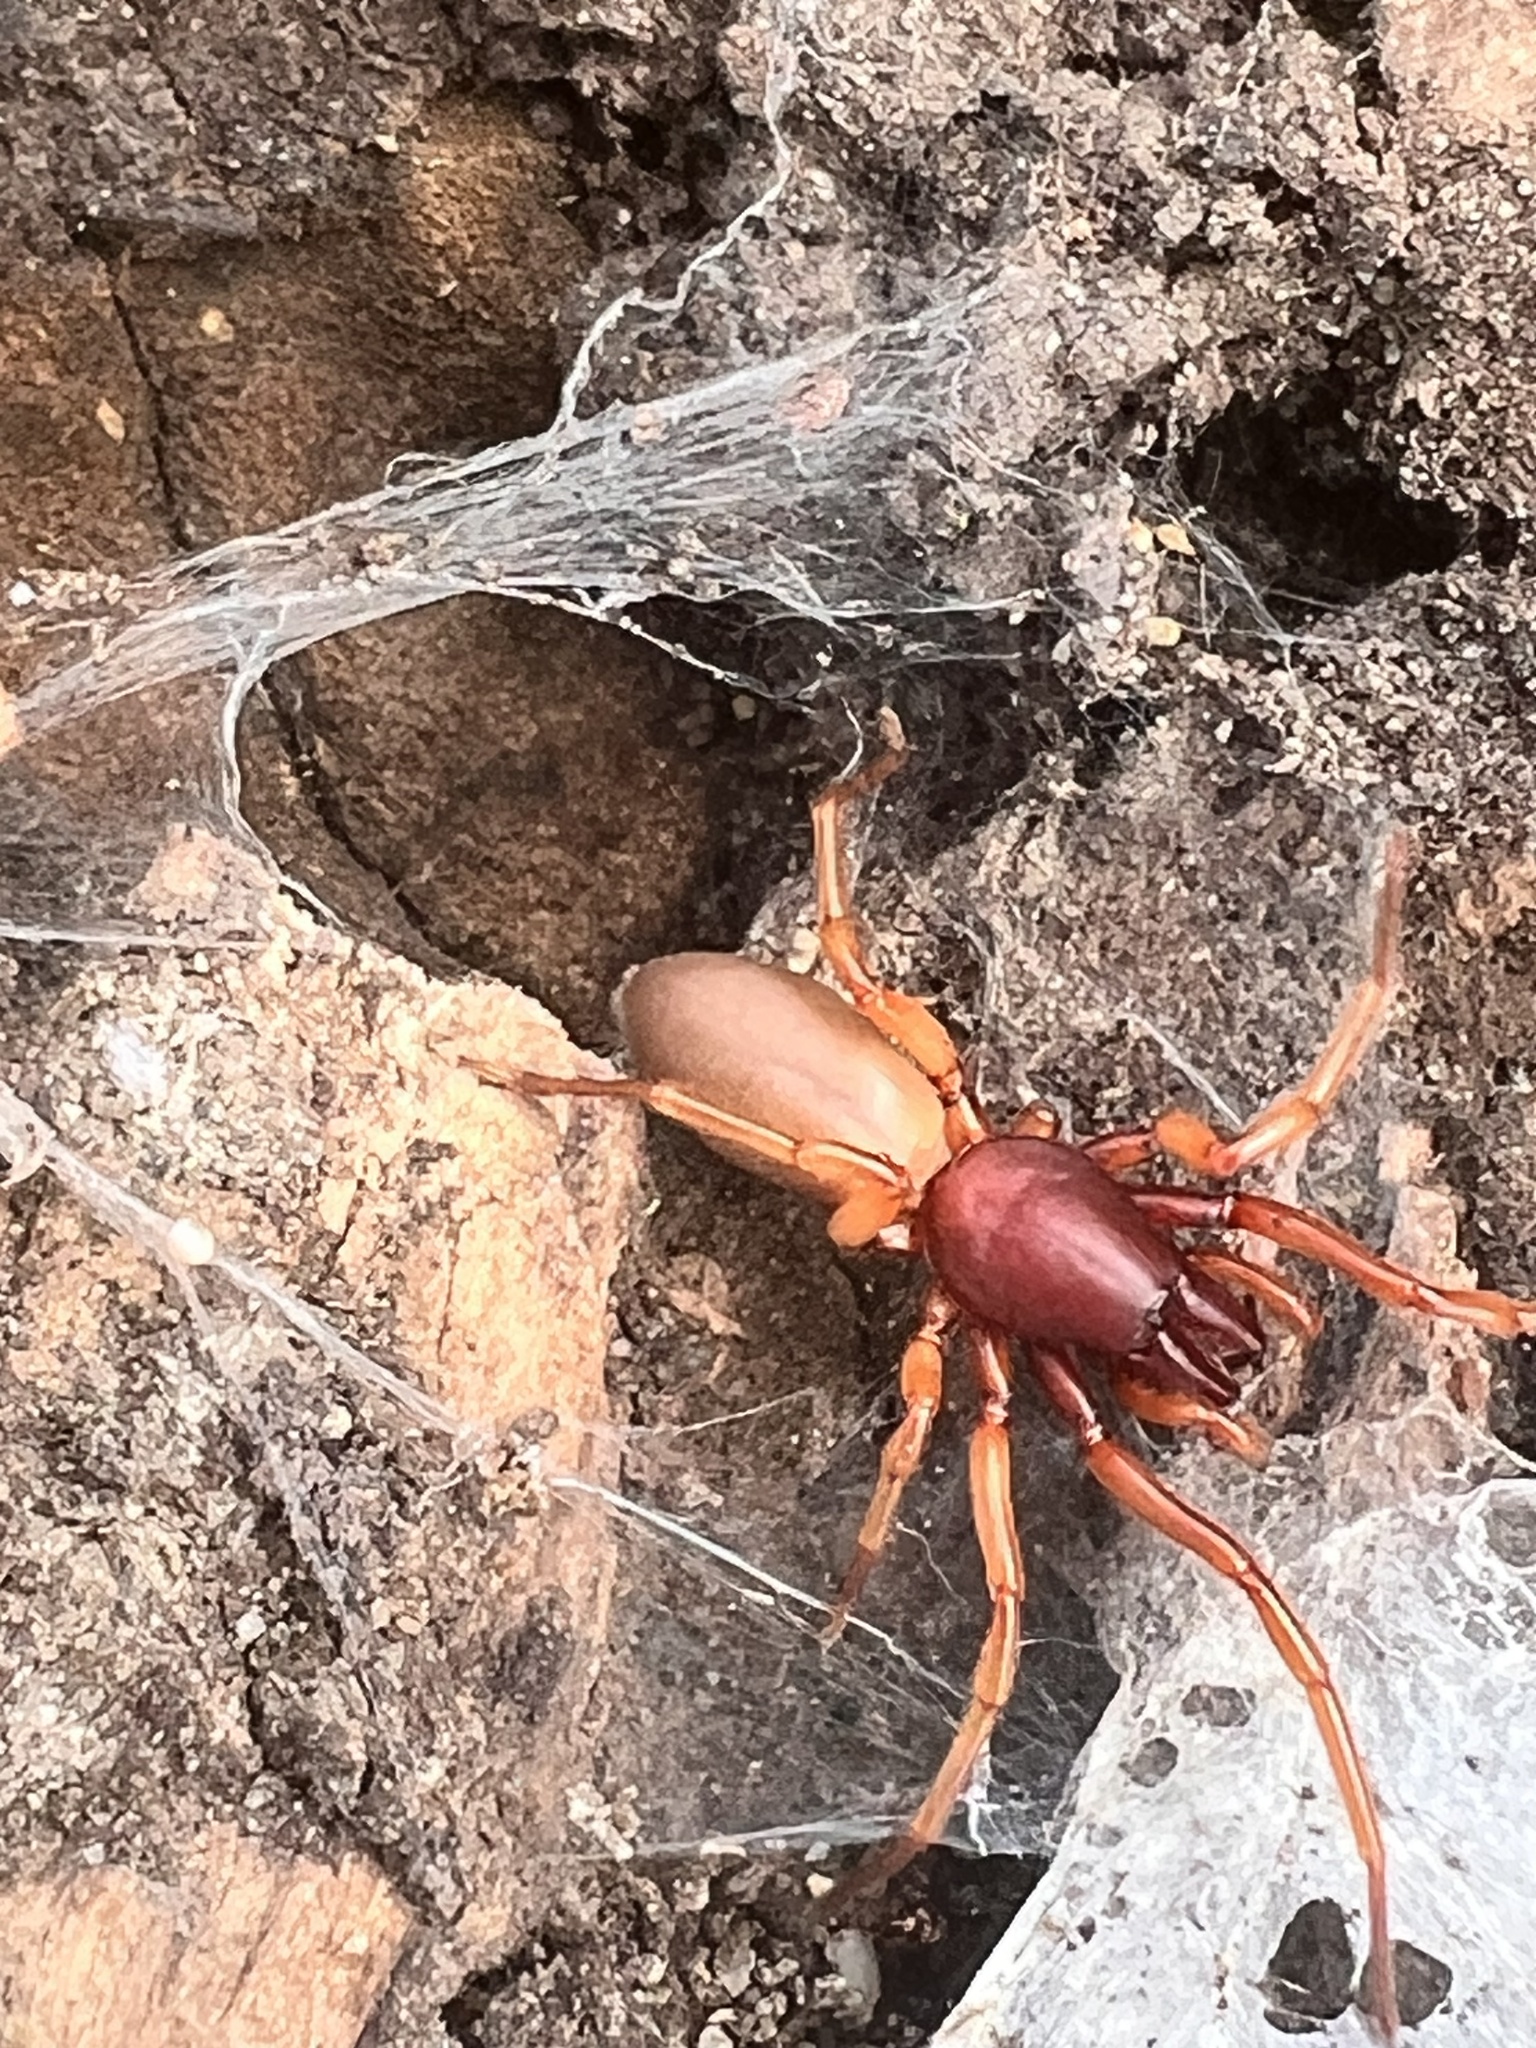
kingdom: Animalia
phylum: Arthropoda
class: Arachnida
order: Araneae
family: Dysderidae
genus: Dysdera
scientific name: Dysdera crocata
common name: Woodlouse spider
